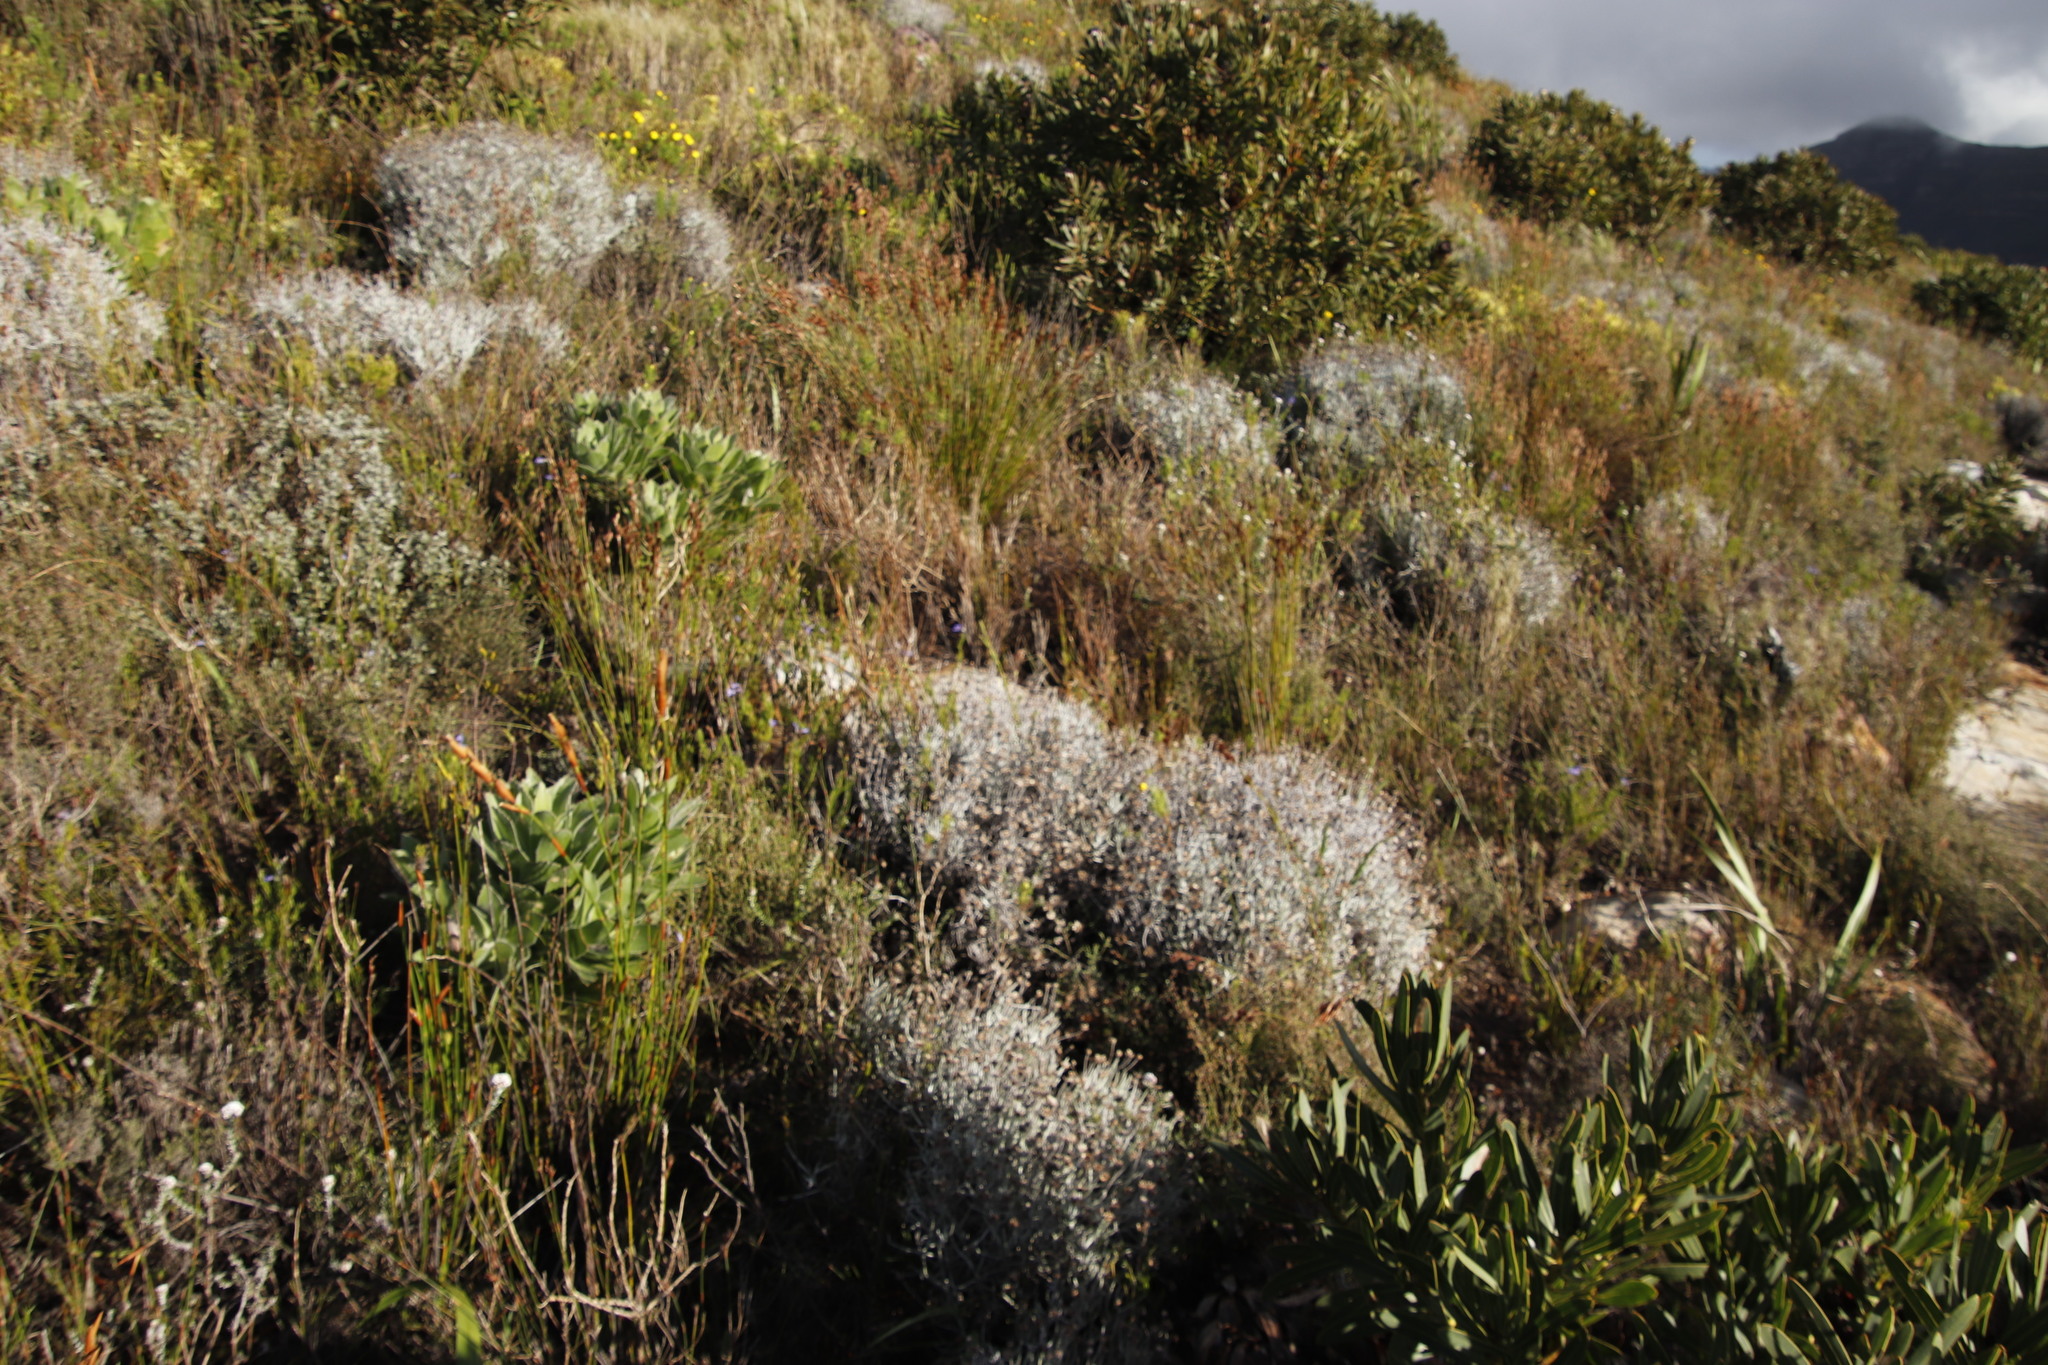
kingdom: Plantae
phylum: Tracheophyta
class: Magnoliopsida
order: Asterales
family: Asteraceae
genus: Syncarpha
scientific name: Syncarpha gnaphaloides
